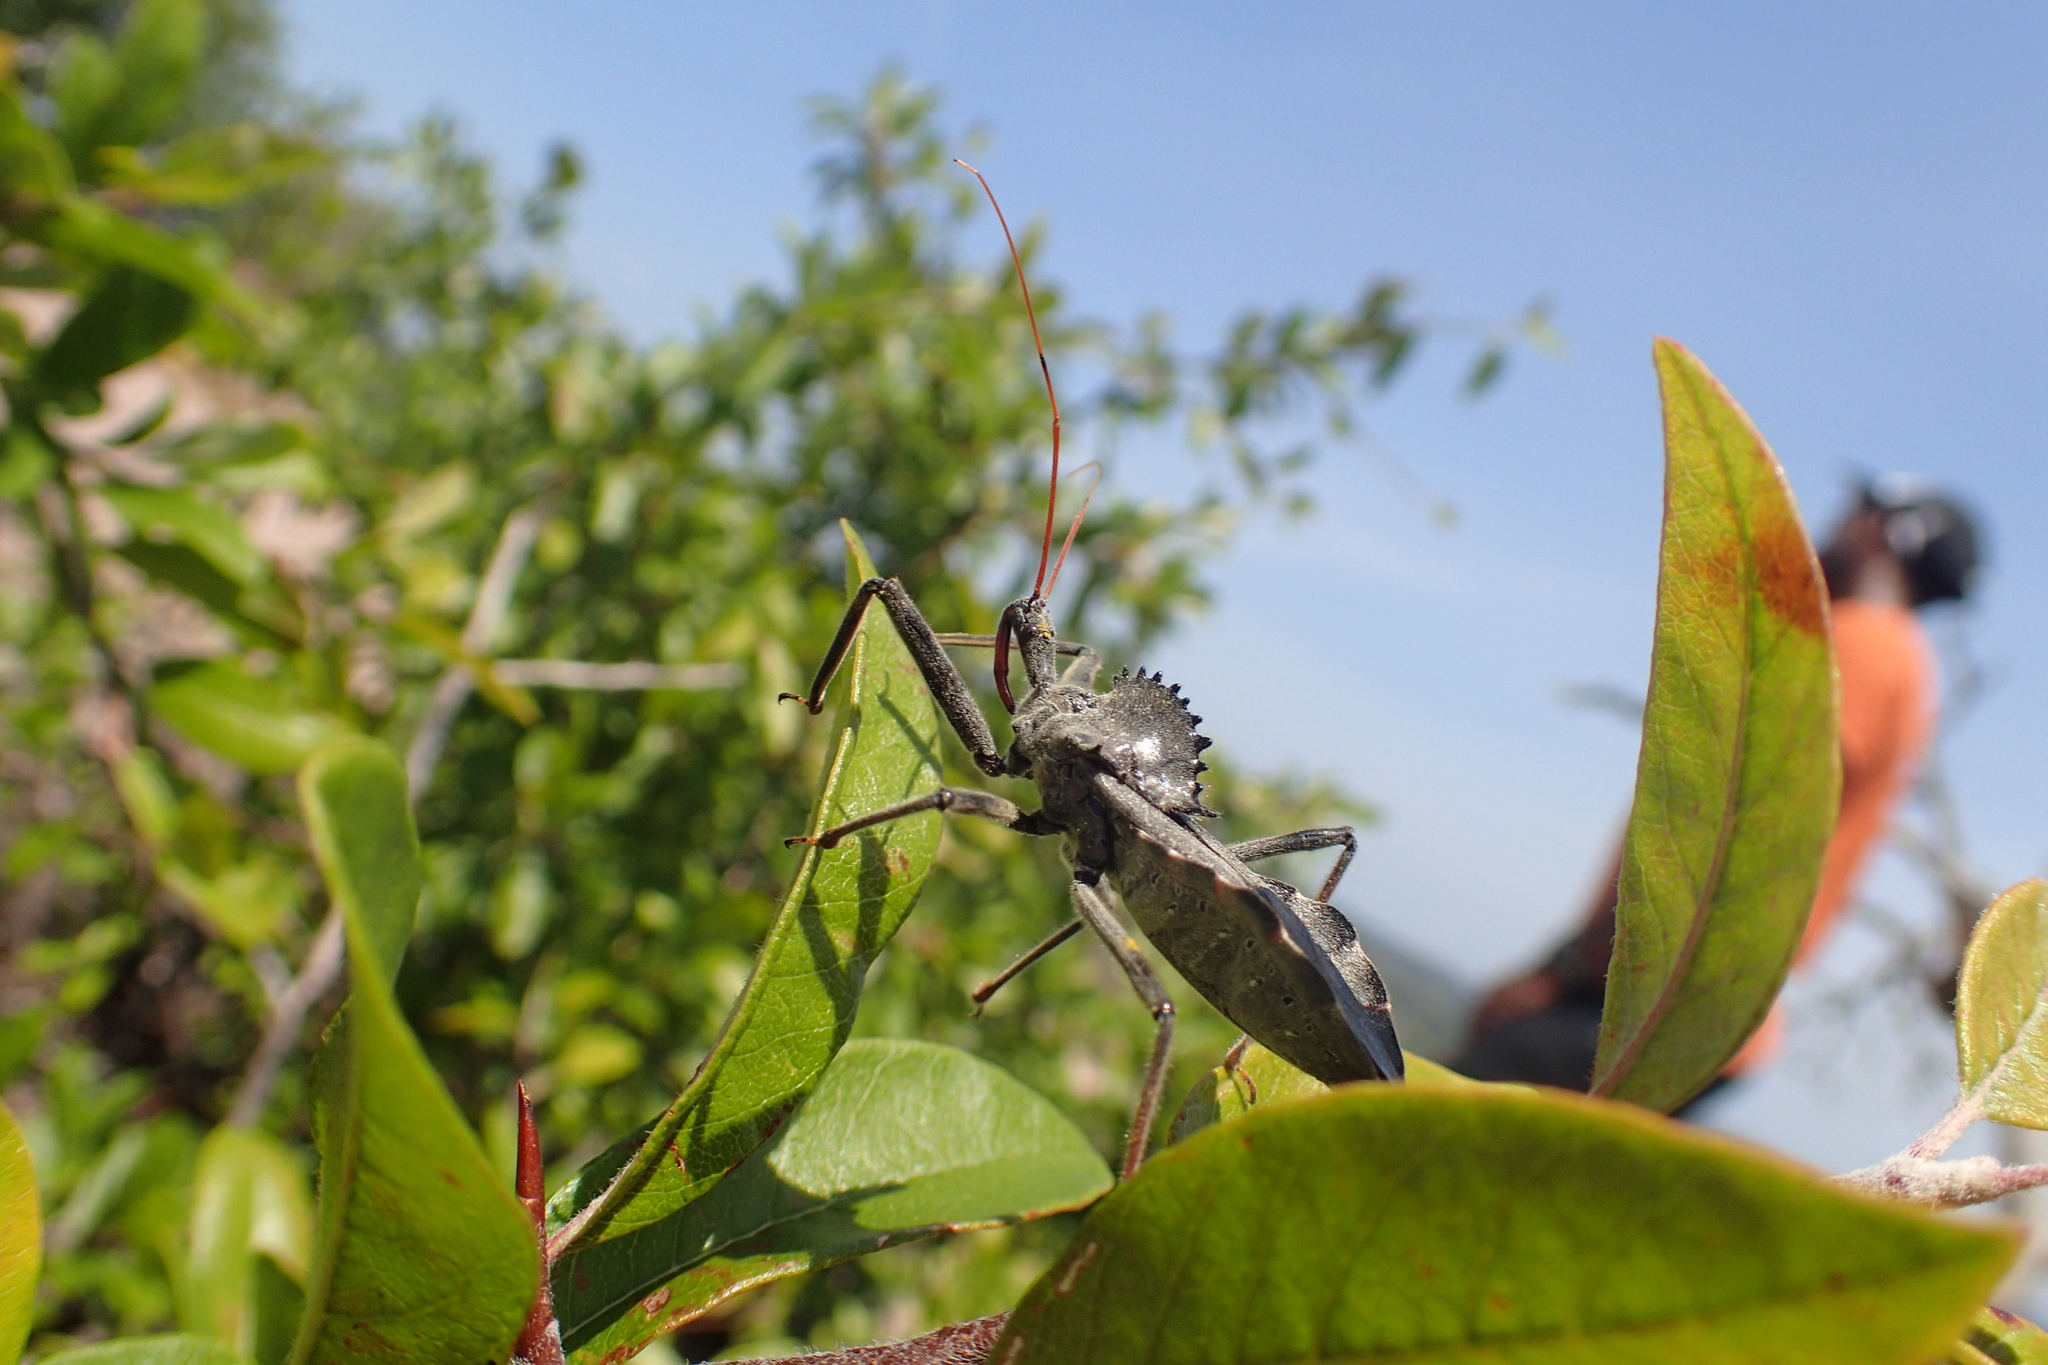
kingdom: Animalia
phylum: Arthropoda
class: Insecta
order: Hemiptera
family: Reduviidae
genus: Arilus
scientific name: Arilus cristatus
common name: North american wheel bug
